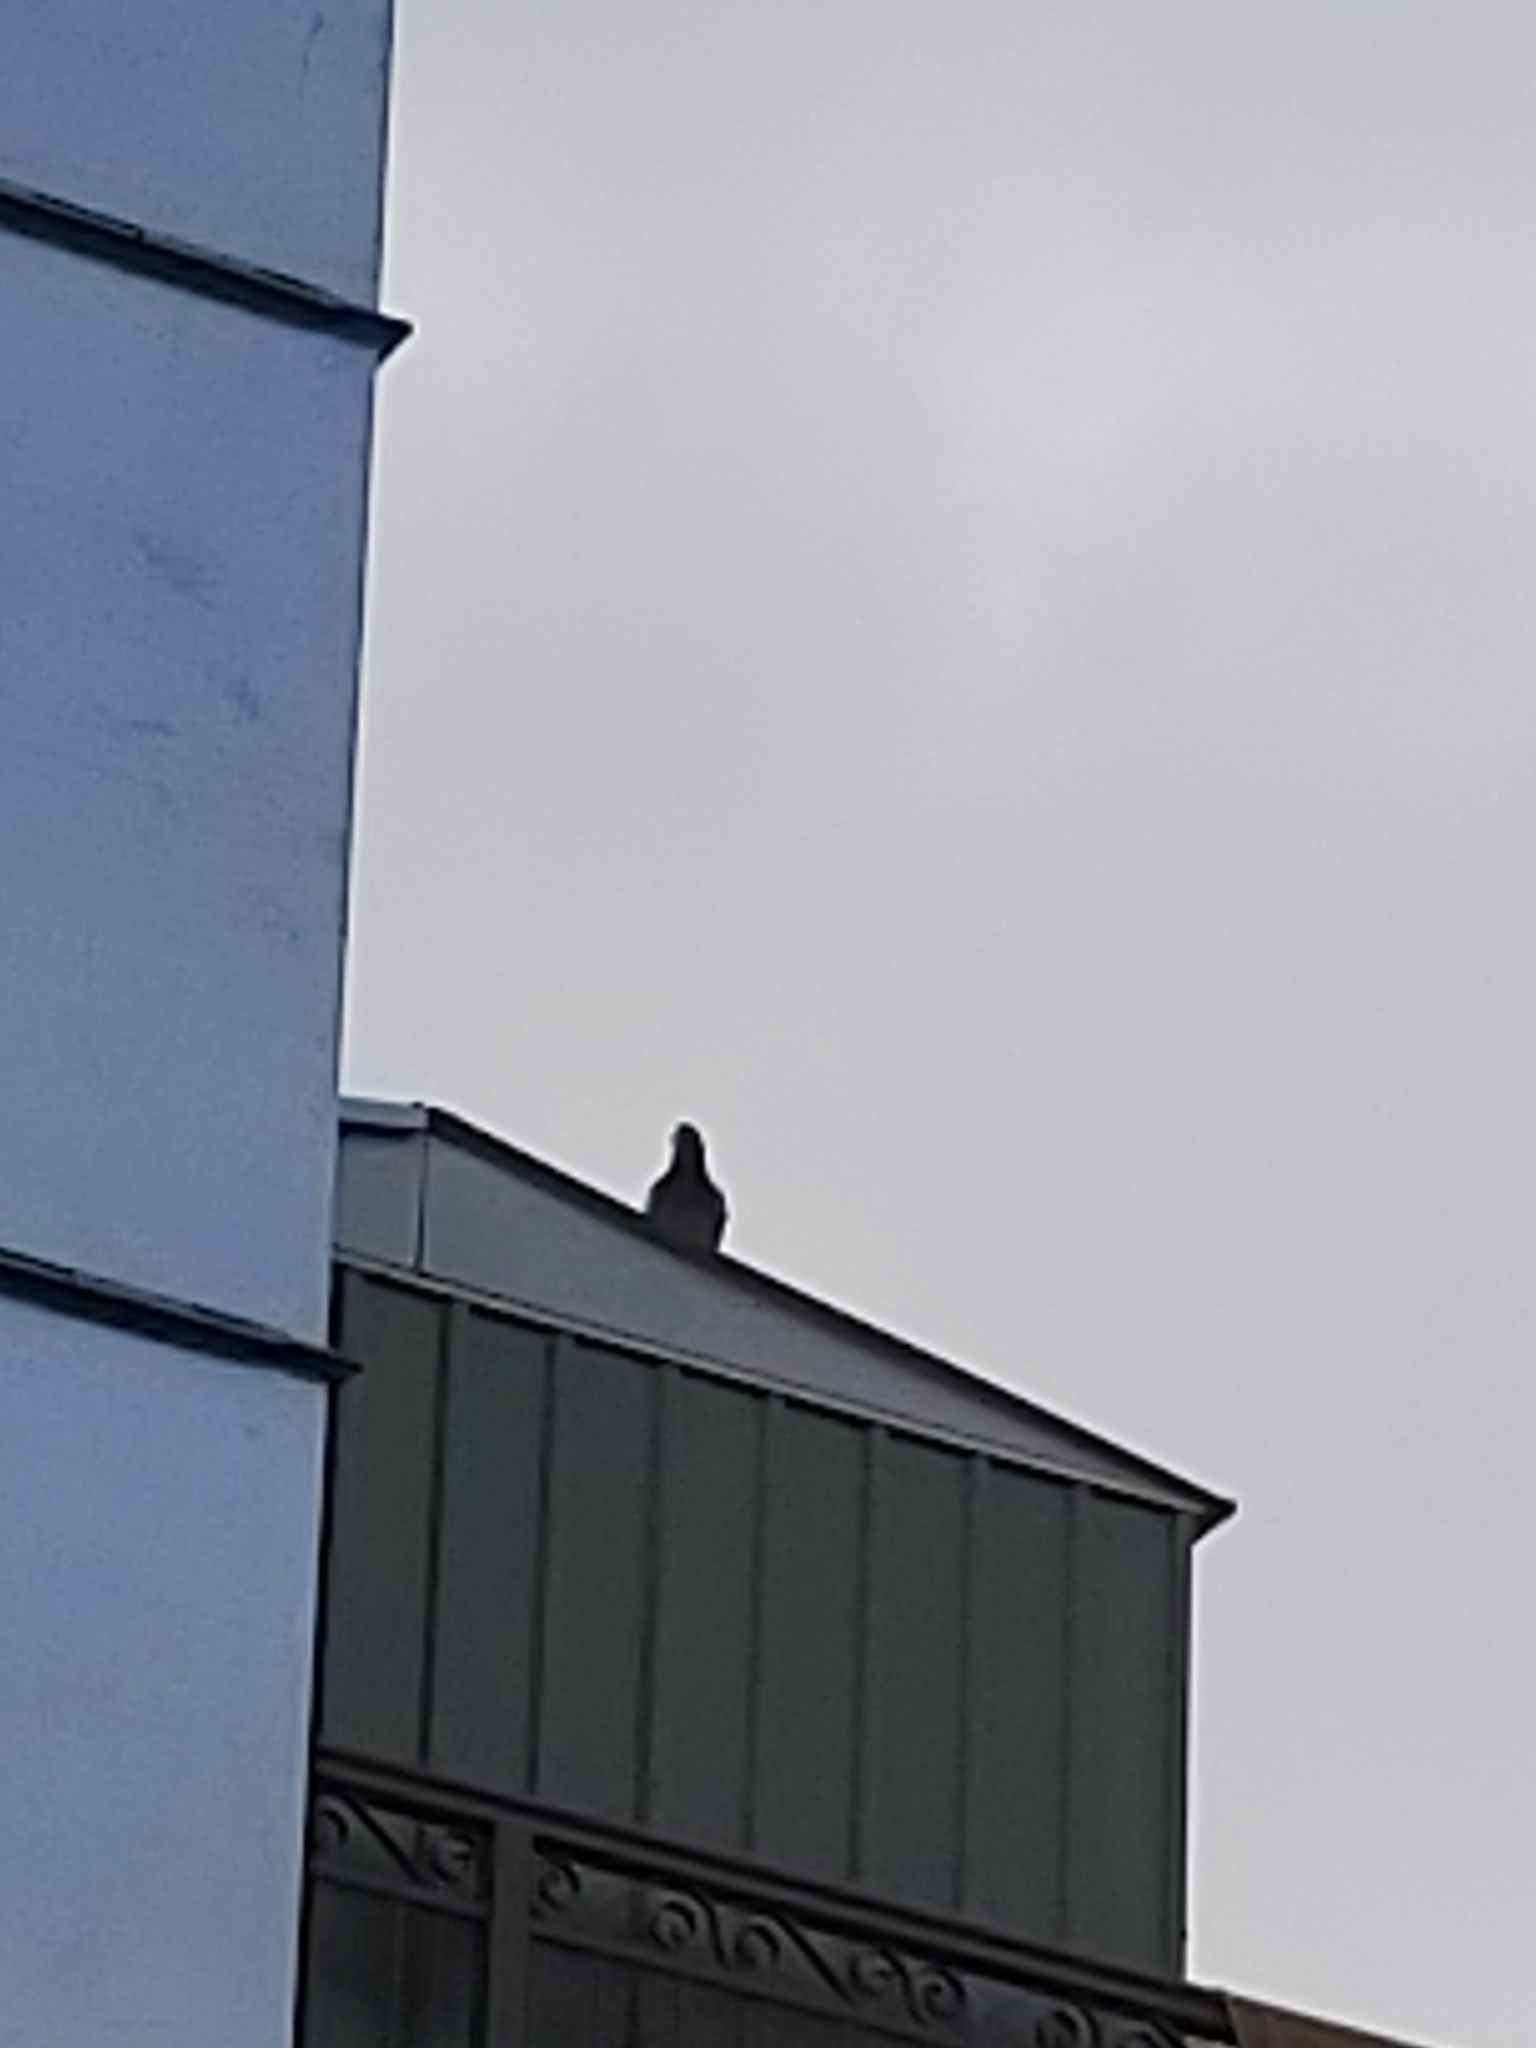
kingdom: Animalia
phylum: Chordata
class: Aves
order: Columbiformes
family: Columbidae
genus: Columba
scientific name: Columba livia
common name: Rock pigeon
